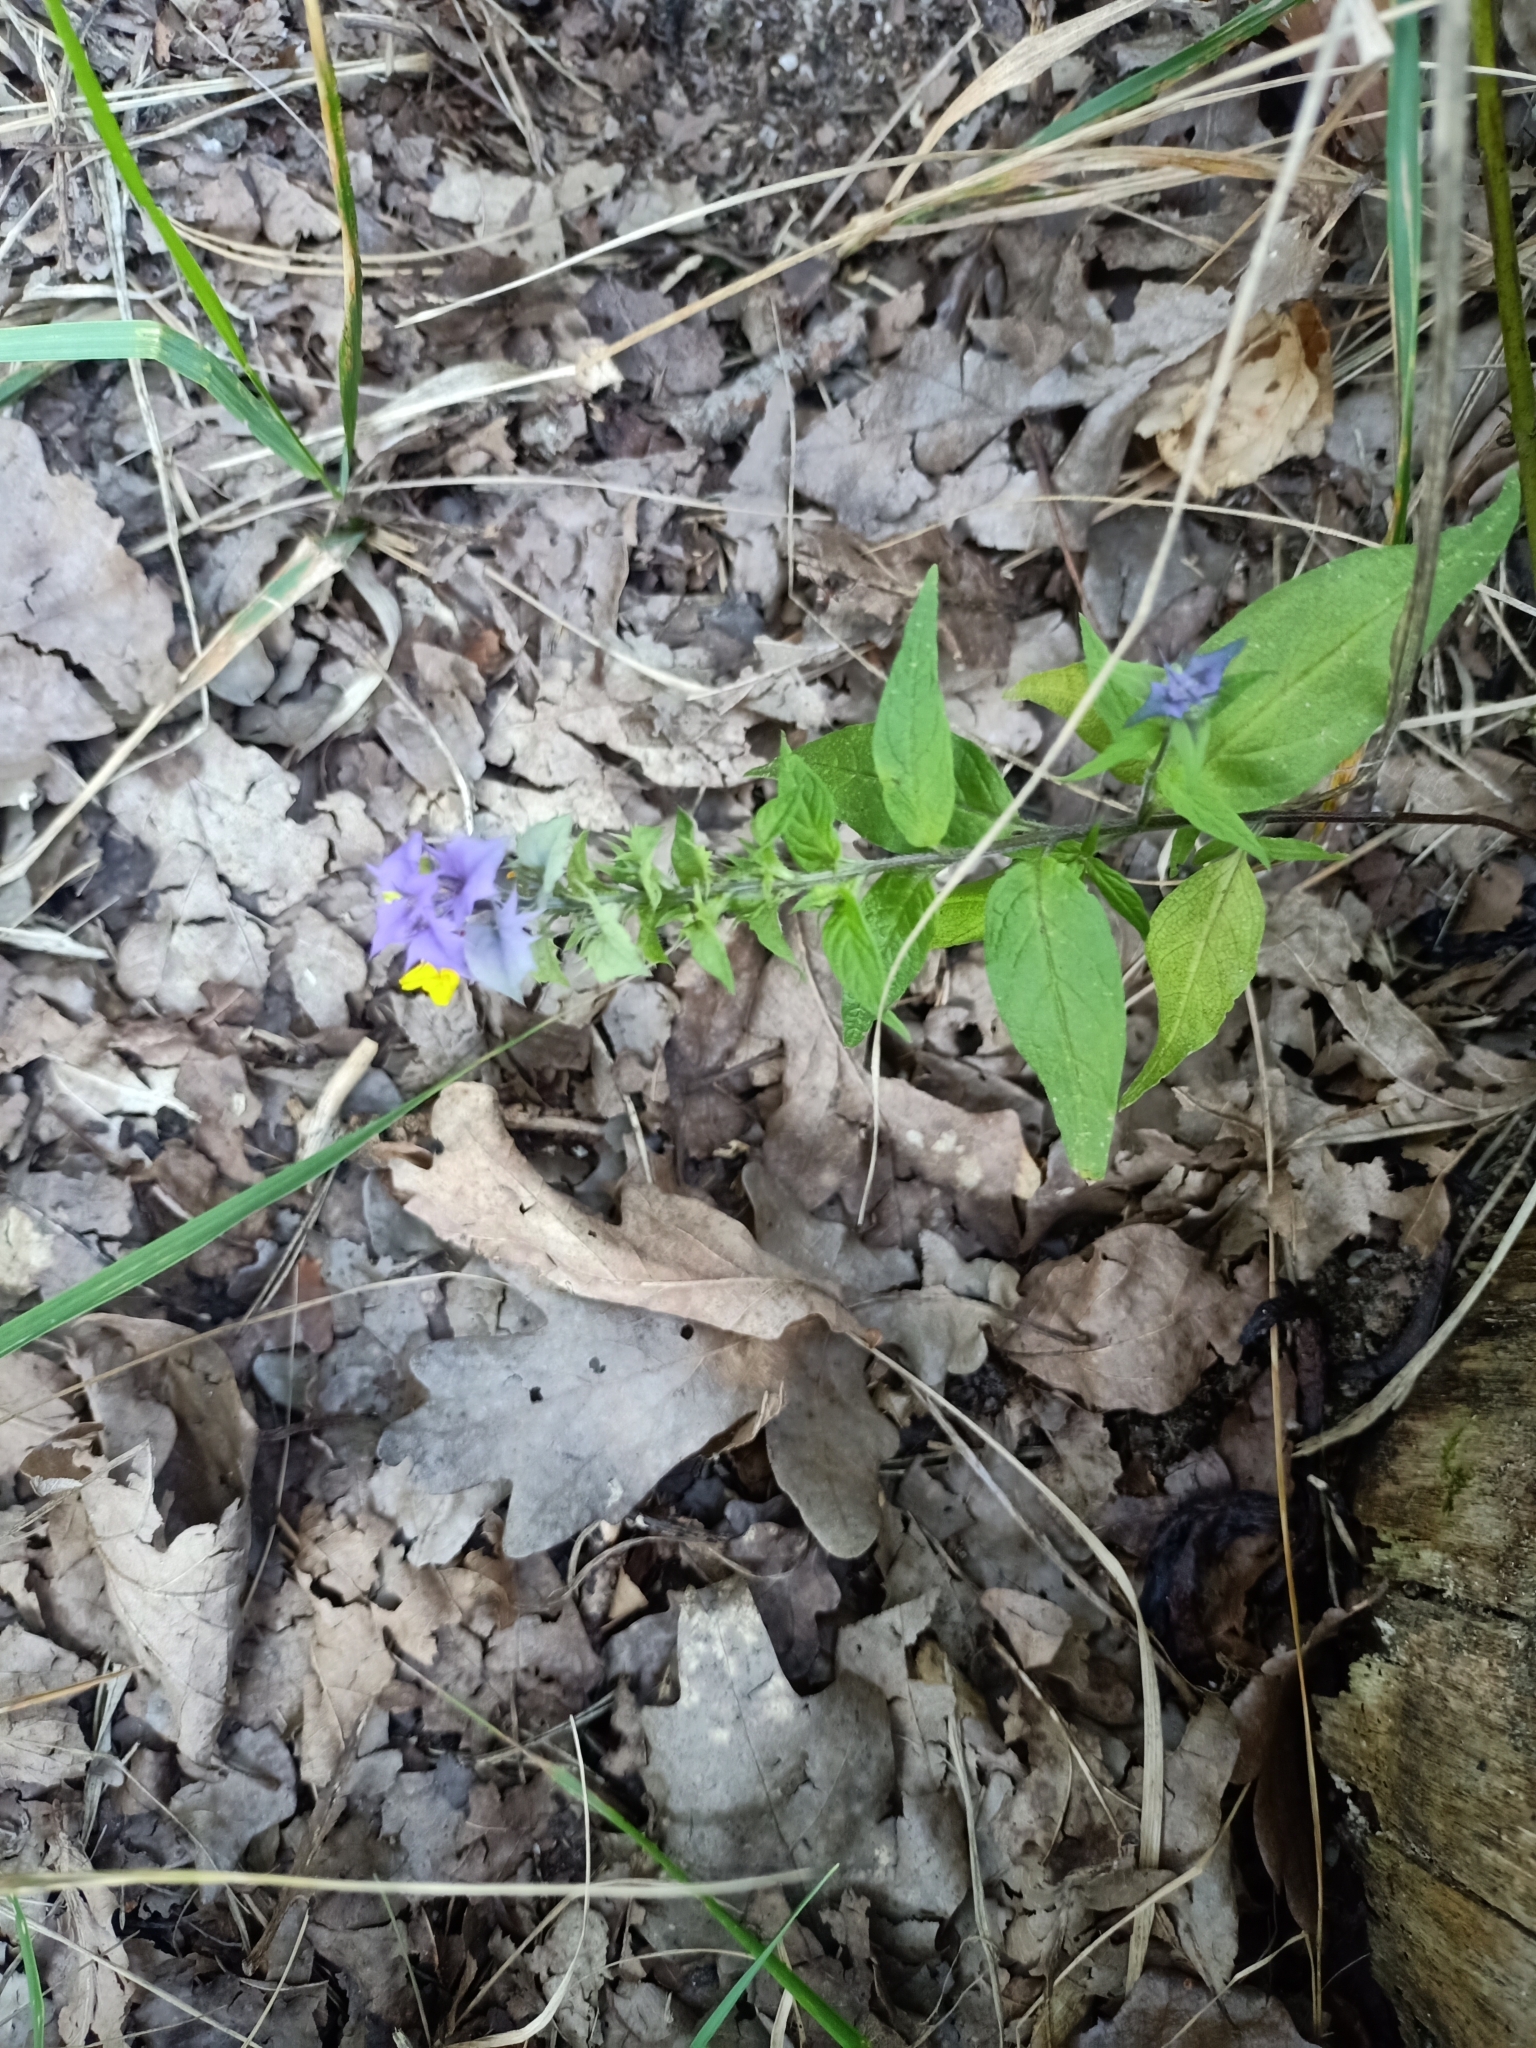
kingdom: Plantae
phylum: Tracheophyta
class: Magnoliopsida
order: Lamiales
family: Orobanchaceae
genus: Melampyrum
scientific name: Melampyrum nemorosum
